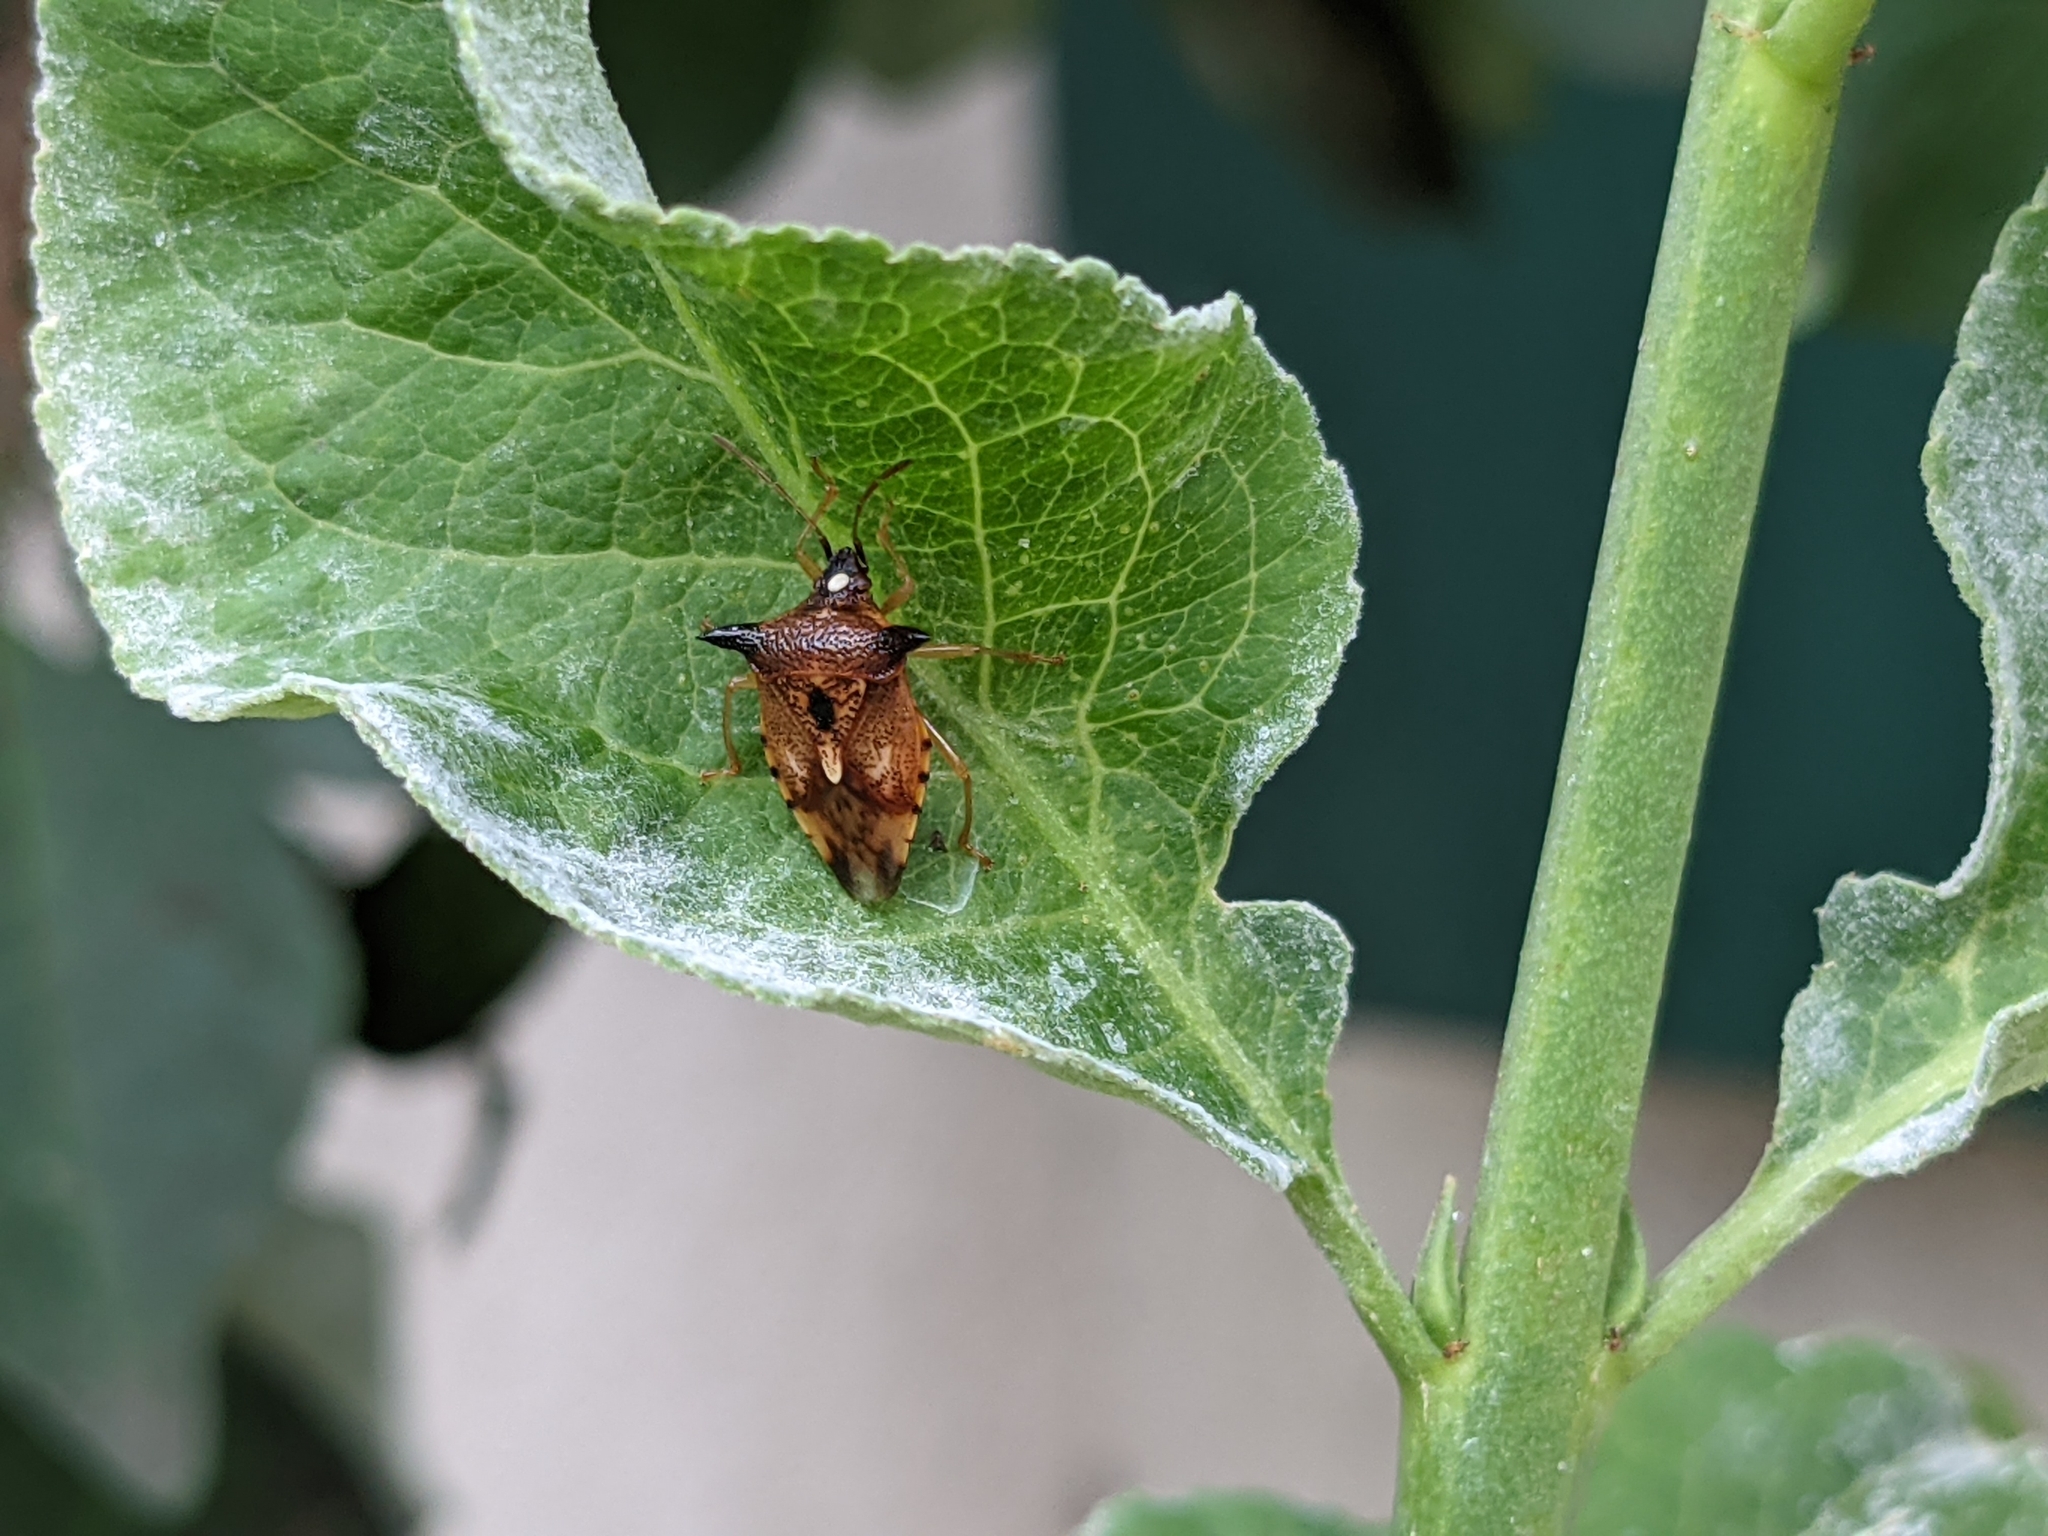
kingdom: Animalia
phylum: Arthropoda
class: Insecta
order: Hemiptera
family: Acanthosomatidae
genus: Elasmucha
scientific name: Elasmucha ferrugata
